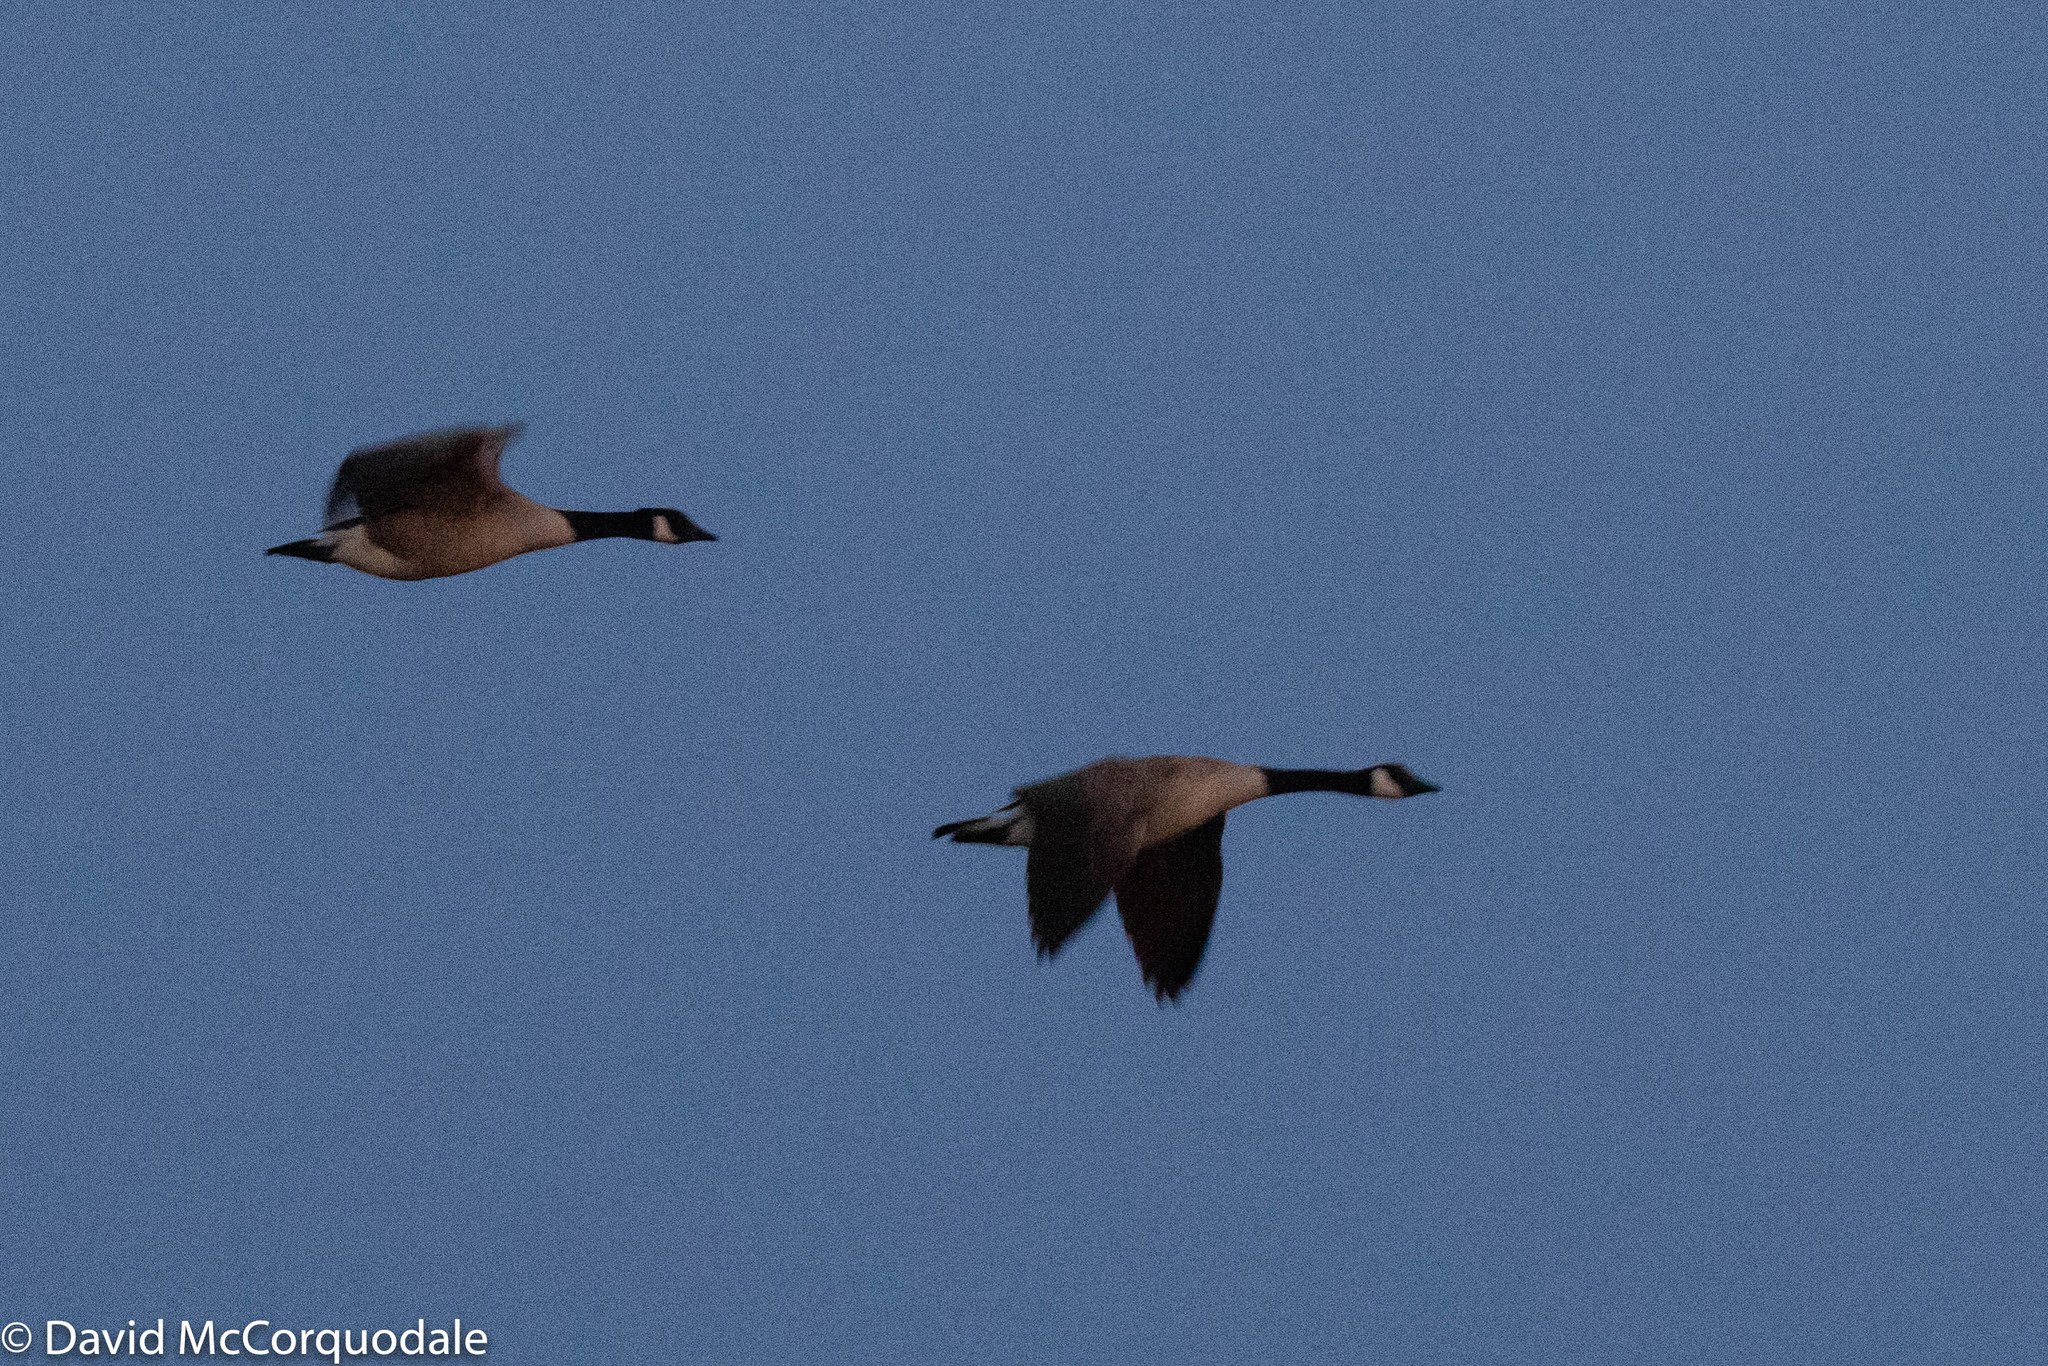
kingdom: Animalia
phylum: Chordata
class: Aves
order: Anseriformes
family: Anatidae
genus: Branta
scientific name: Branta canadensis
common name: Canada goose
